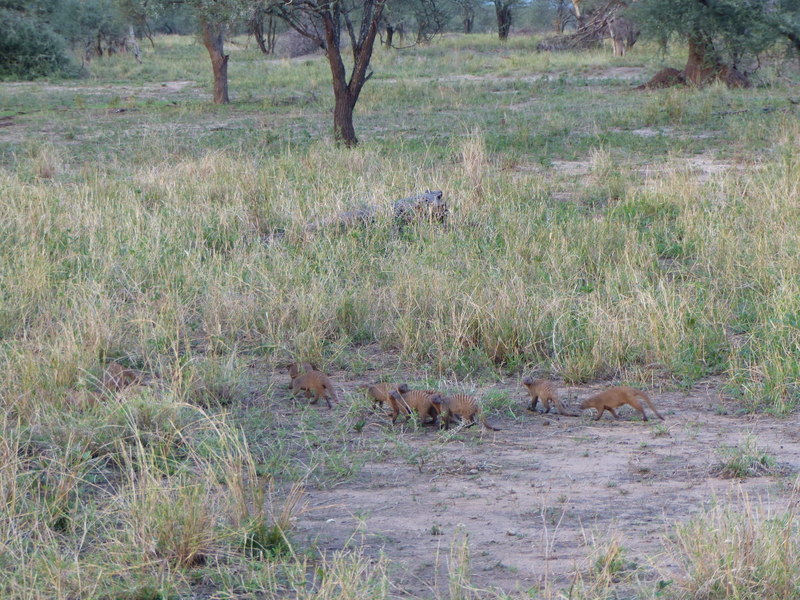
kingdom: Animalia
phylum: Chordata
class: Mammalia
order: Carnivora
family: Herpestidae
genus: Mungos
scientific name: Mungos mungo
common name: Banded mongoose
